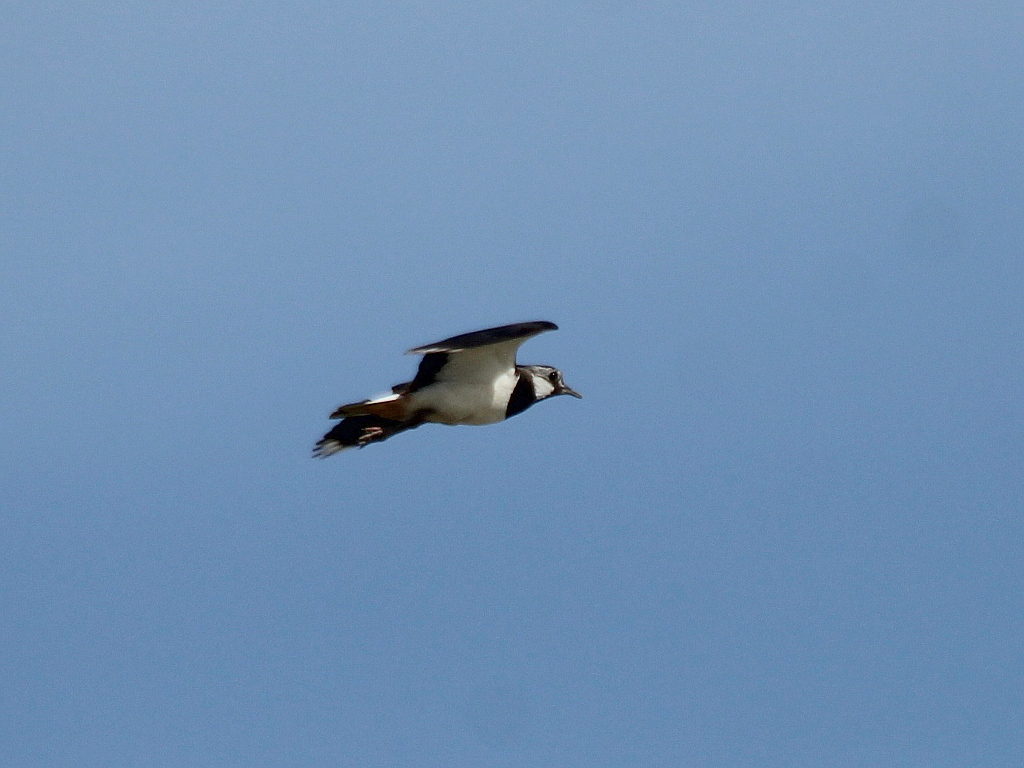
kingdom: Animalia
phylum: Chordata
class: Aves
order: Charadriiformes
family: Charadriidae
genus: Vanellus
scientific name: Vanellus vanellus
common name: Northern lapwing
